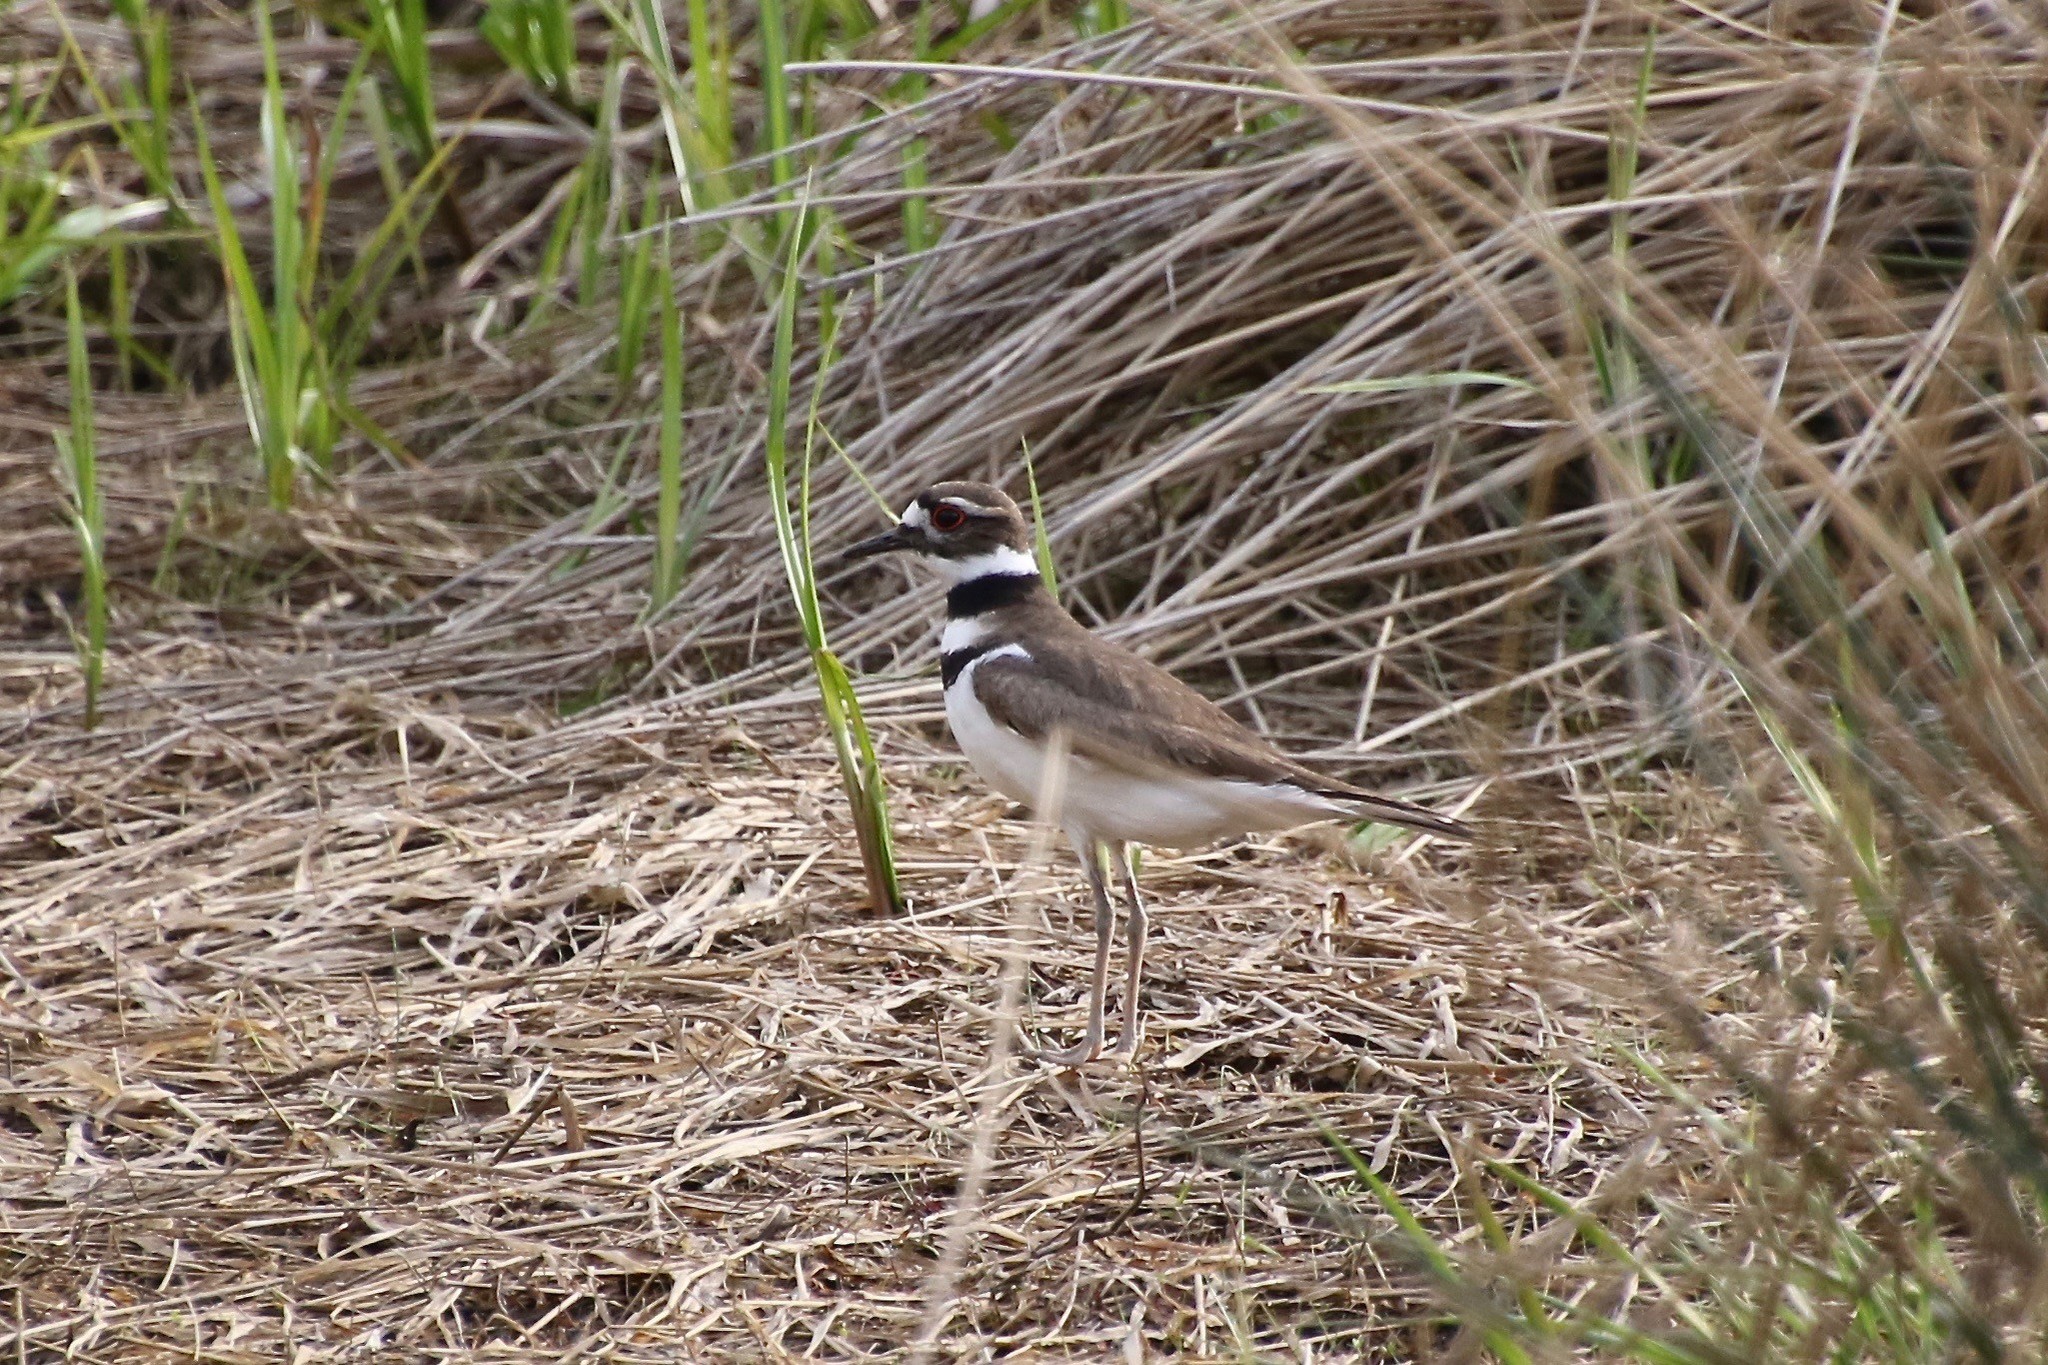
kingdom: Animalia
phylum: Chordata
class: Aves
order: Charadriiformes
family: Charadriidae
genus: Charadrius
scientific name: Charadrius vociferus
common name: Killdeer
